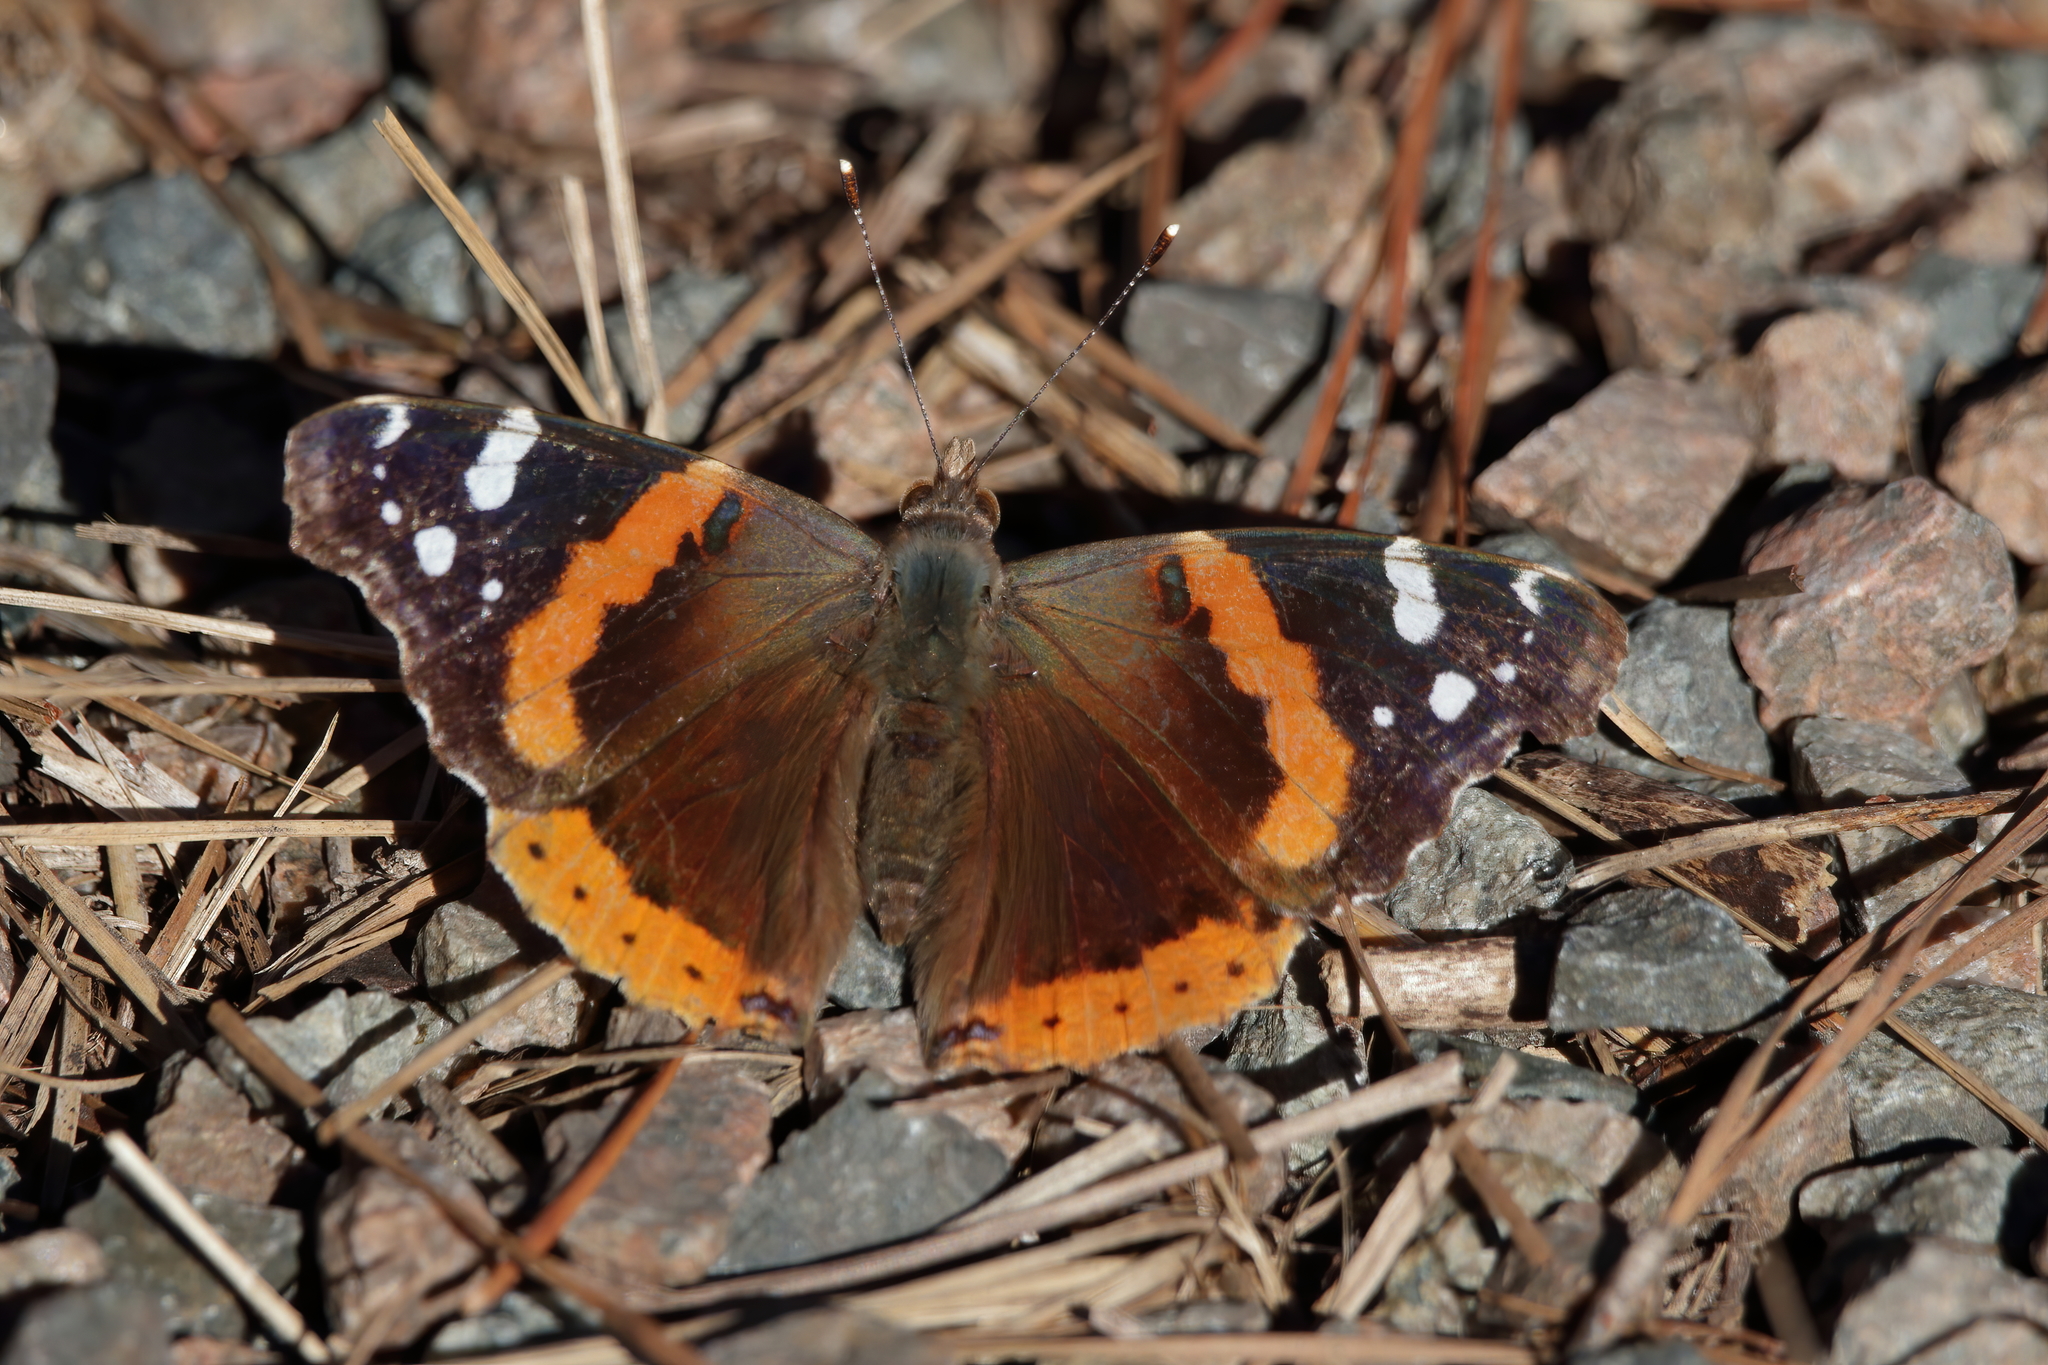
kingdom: Animalia
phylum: Arthropoda
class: Insecta
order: Lepidoptera
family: Nymphalidae
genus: Vanessa
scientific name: Vanessa atalanta
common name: Red admiral
